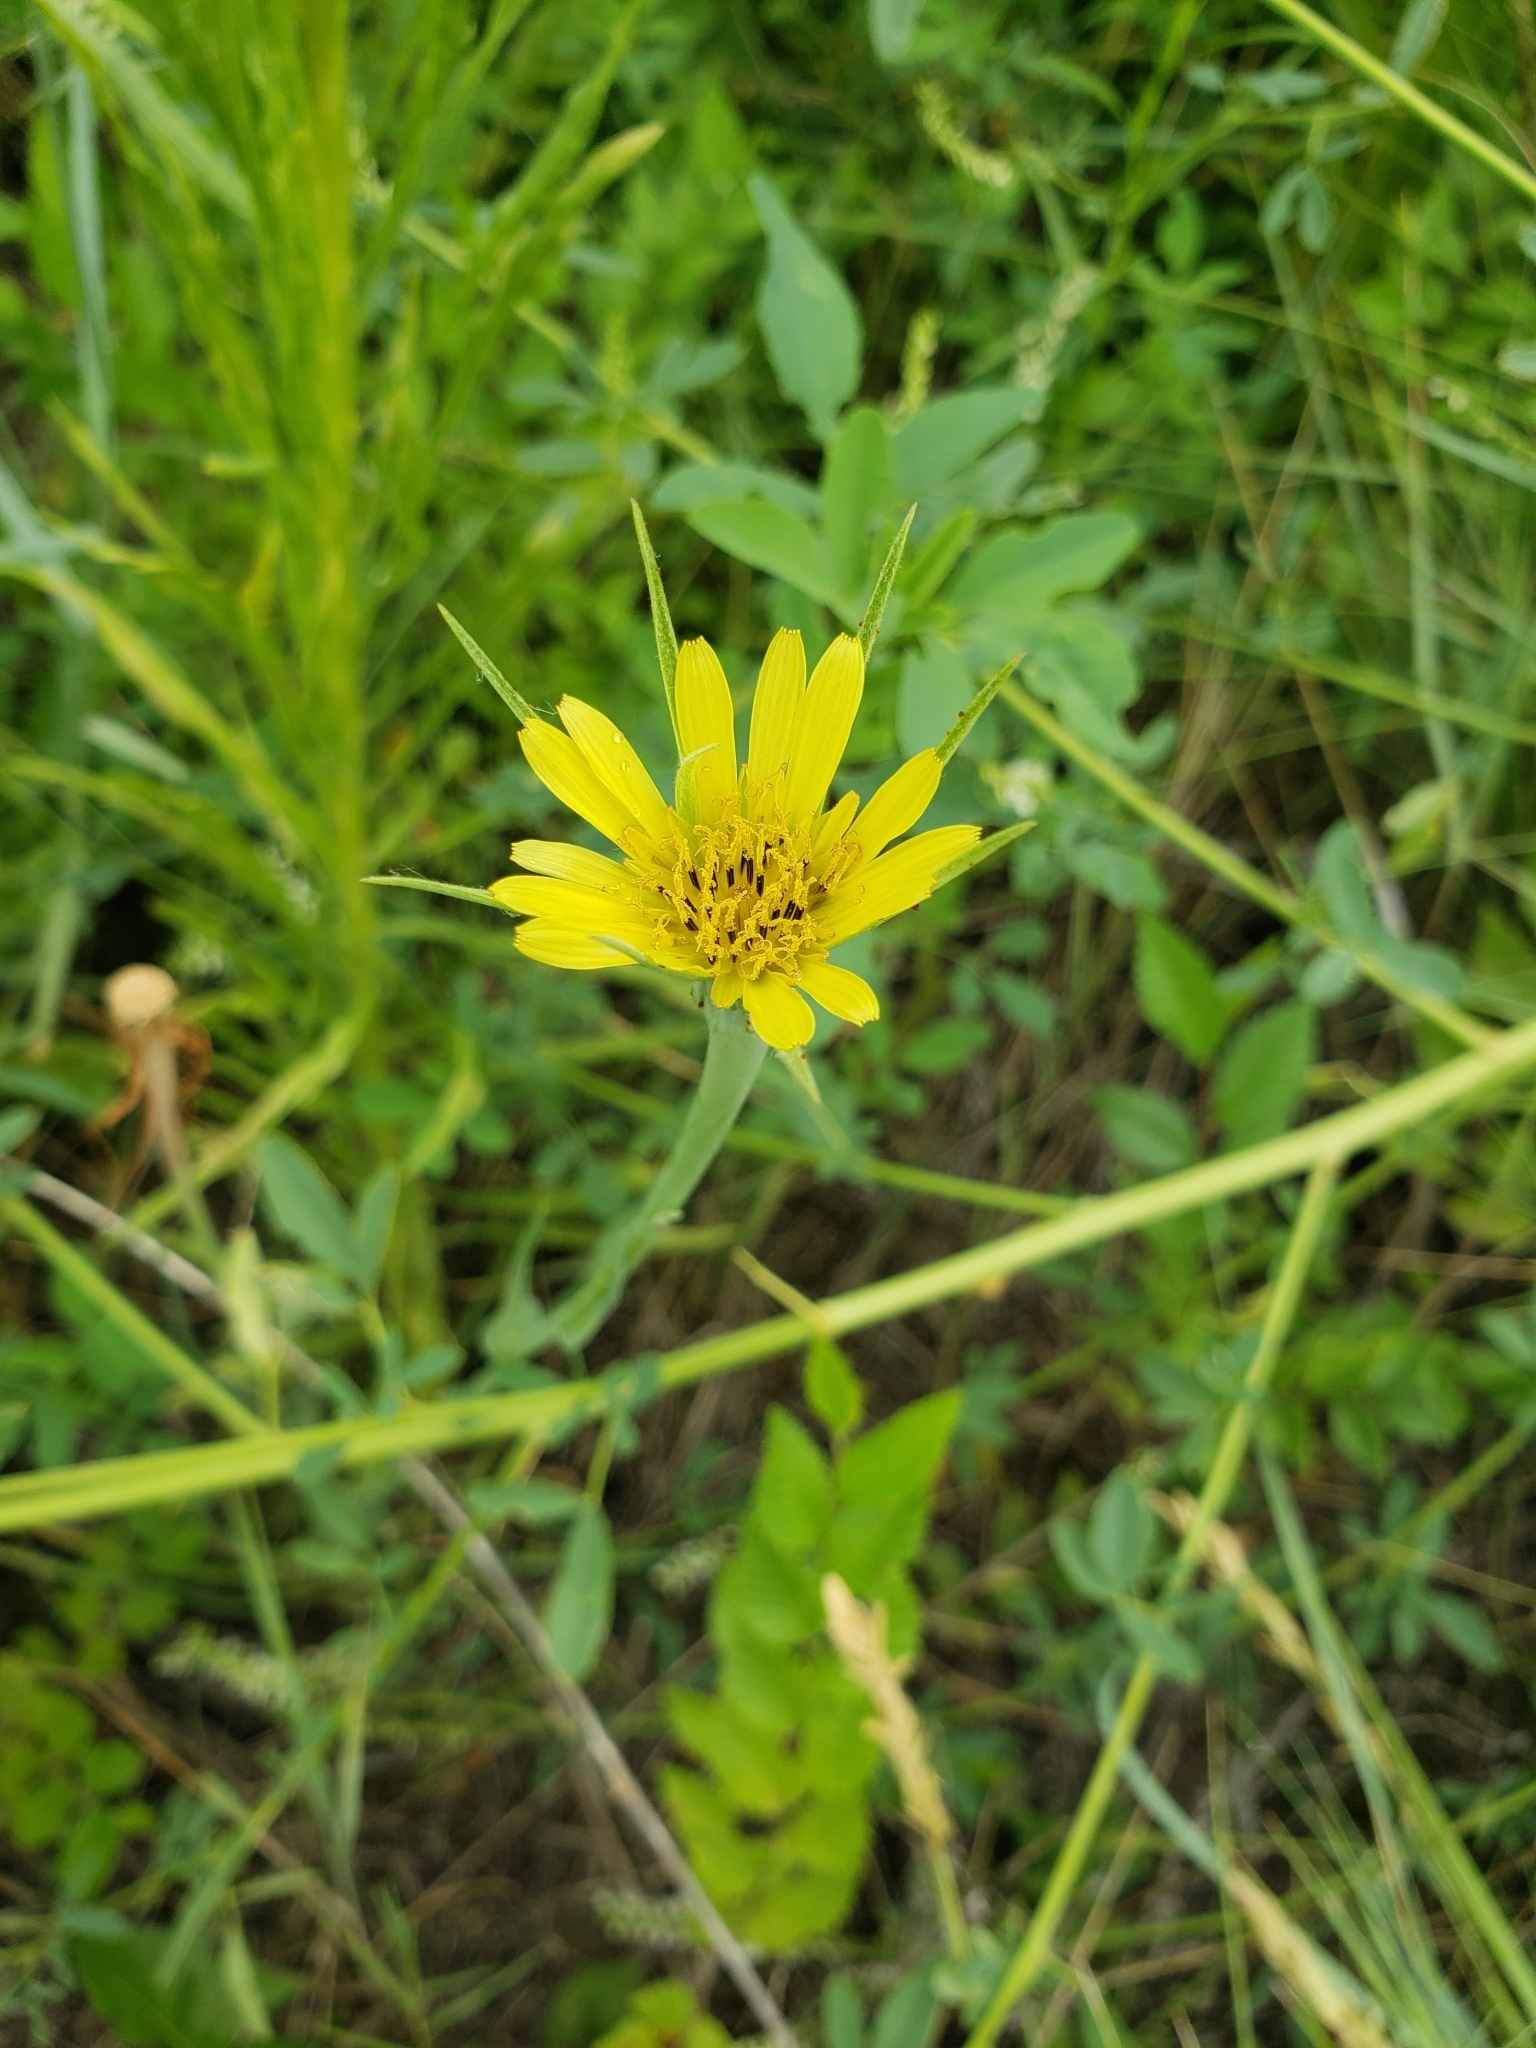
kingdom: Plantae
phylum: Tracheophyta
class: Magnoliopsida
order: Asterales
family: Asteraceae
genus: Tragopogon
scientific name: Tragopogon dubius
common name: Yellow salsify
